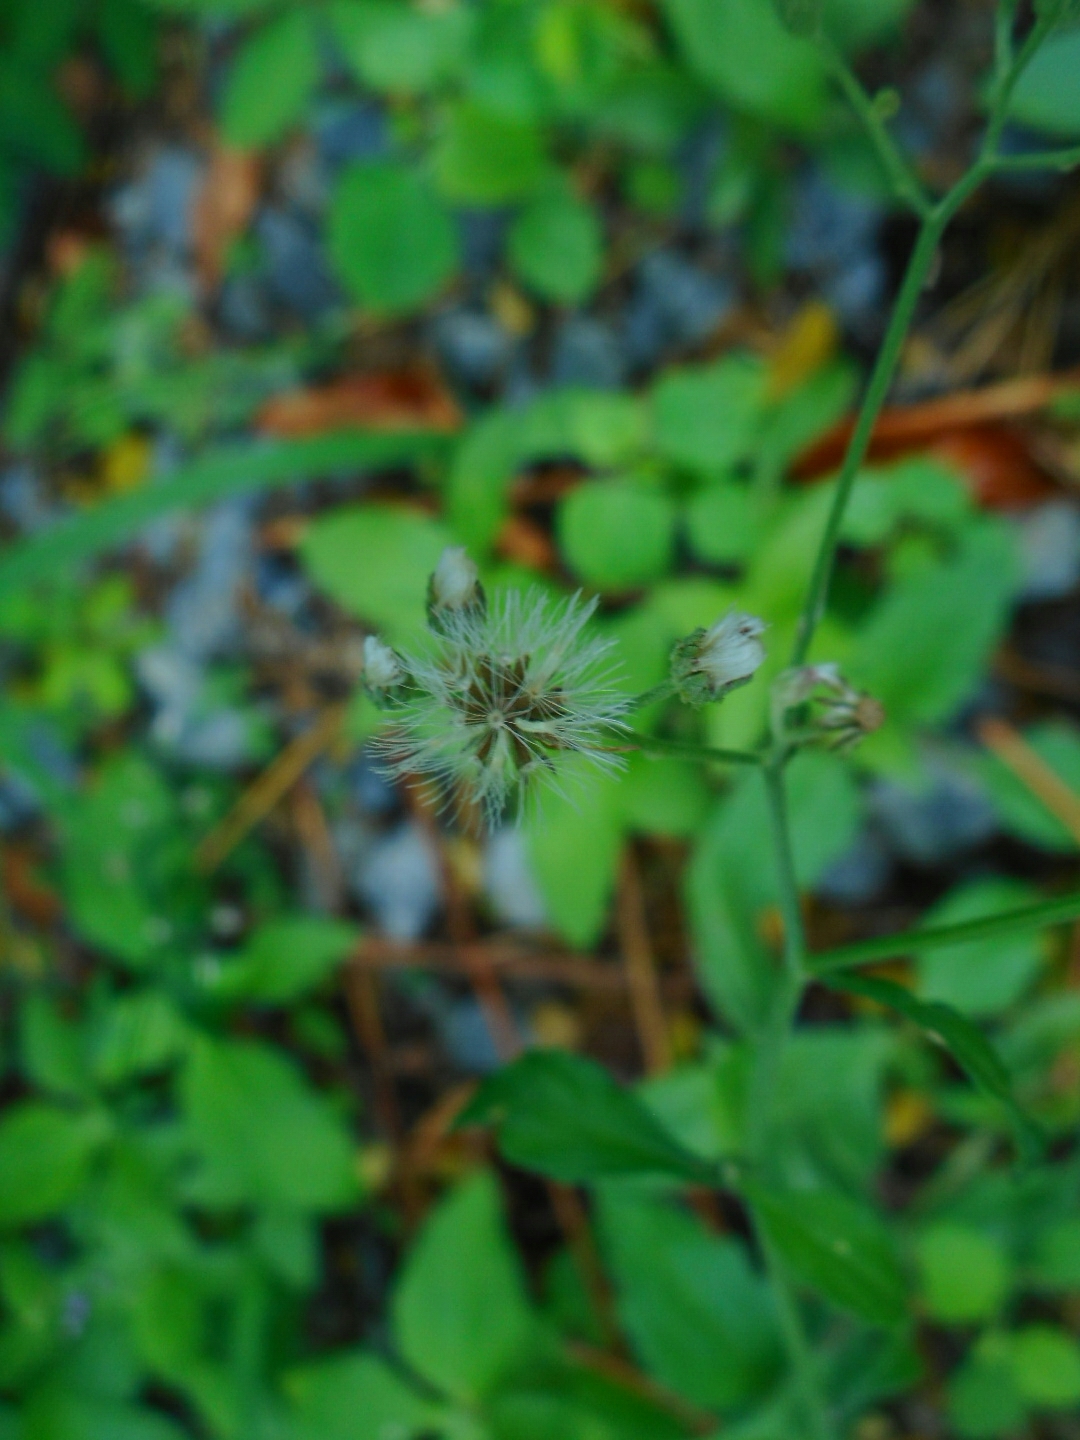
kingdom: Plantae
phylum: Tracheophyta
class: Magnoliopsida
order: Asterales
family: Asteraceae
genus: Cyanthillium
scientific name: Cyanthillium cinereum
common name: Little ironweed
